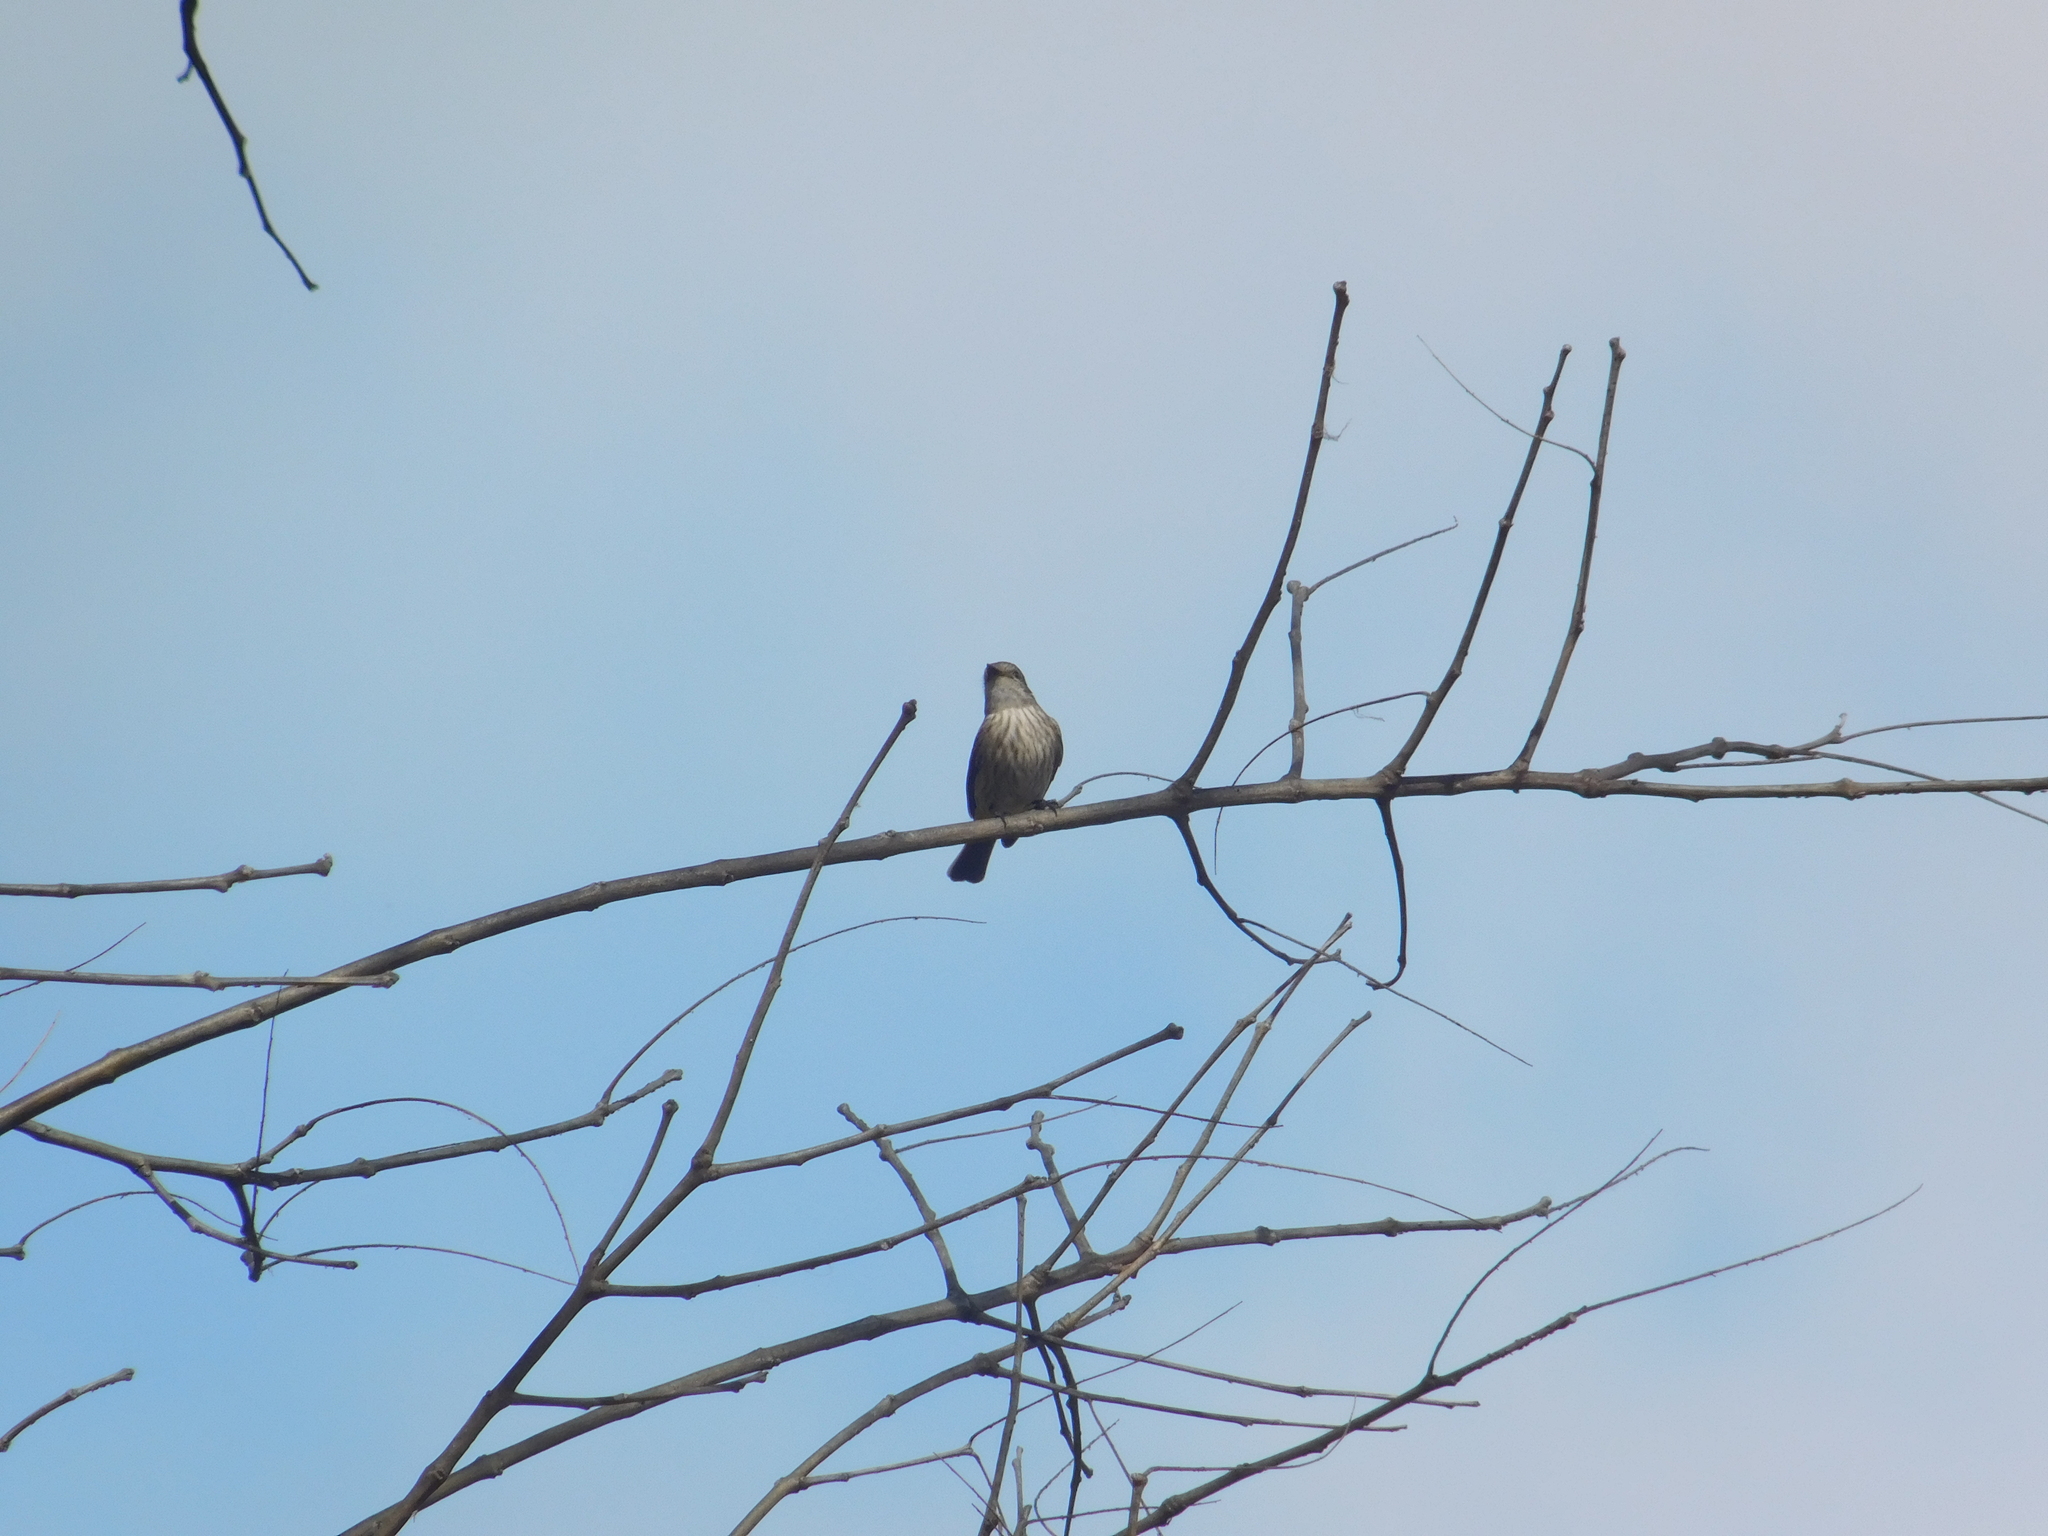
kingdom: Animalia
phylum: Chordata
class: Aves
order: Passeriformes
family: Tyrannidae
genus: Pyrocephalus
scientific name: Pyrocephalus rubinus
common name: Vermilion flycatcher
